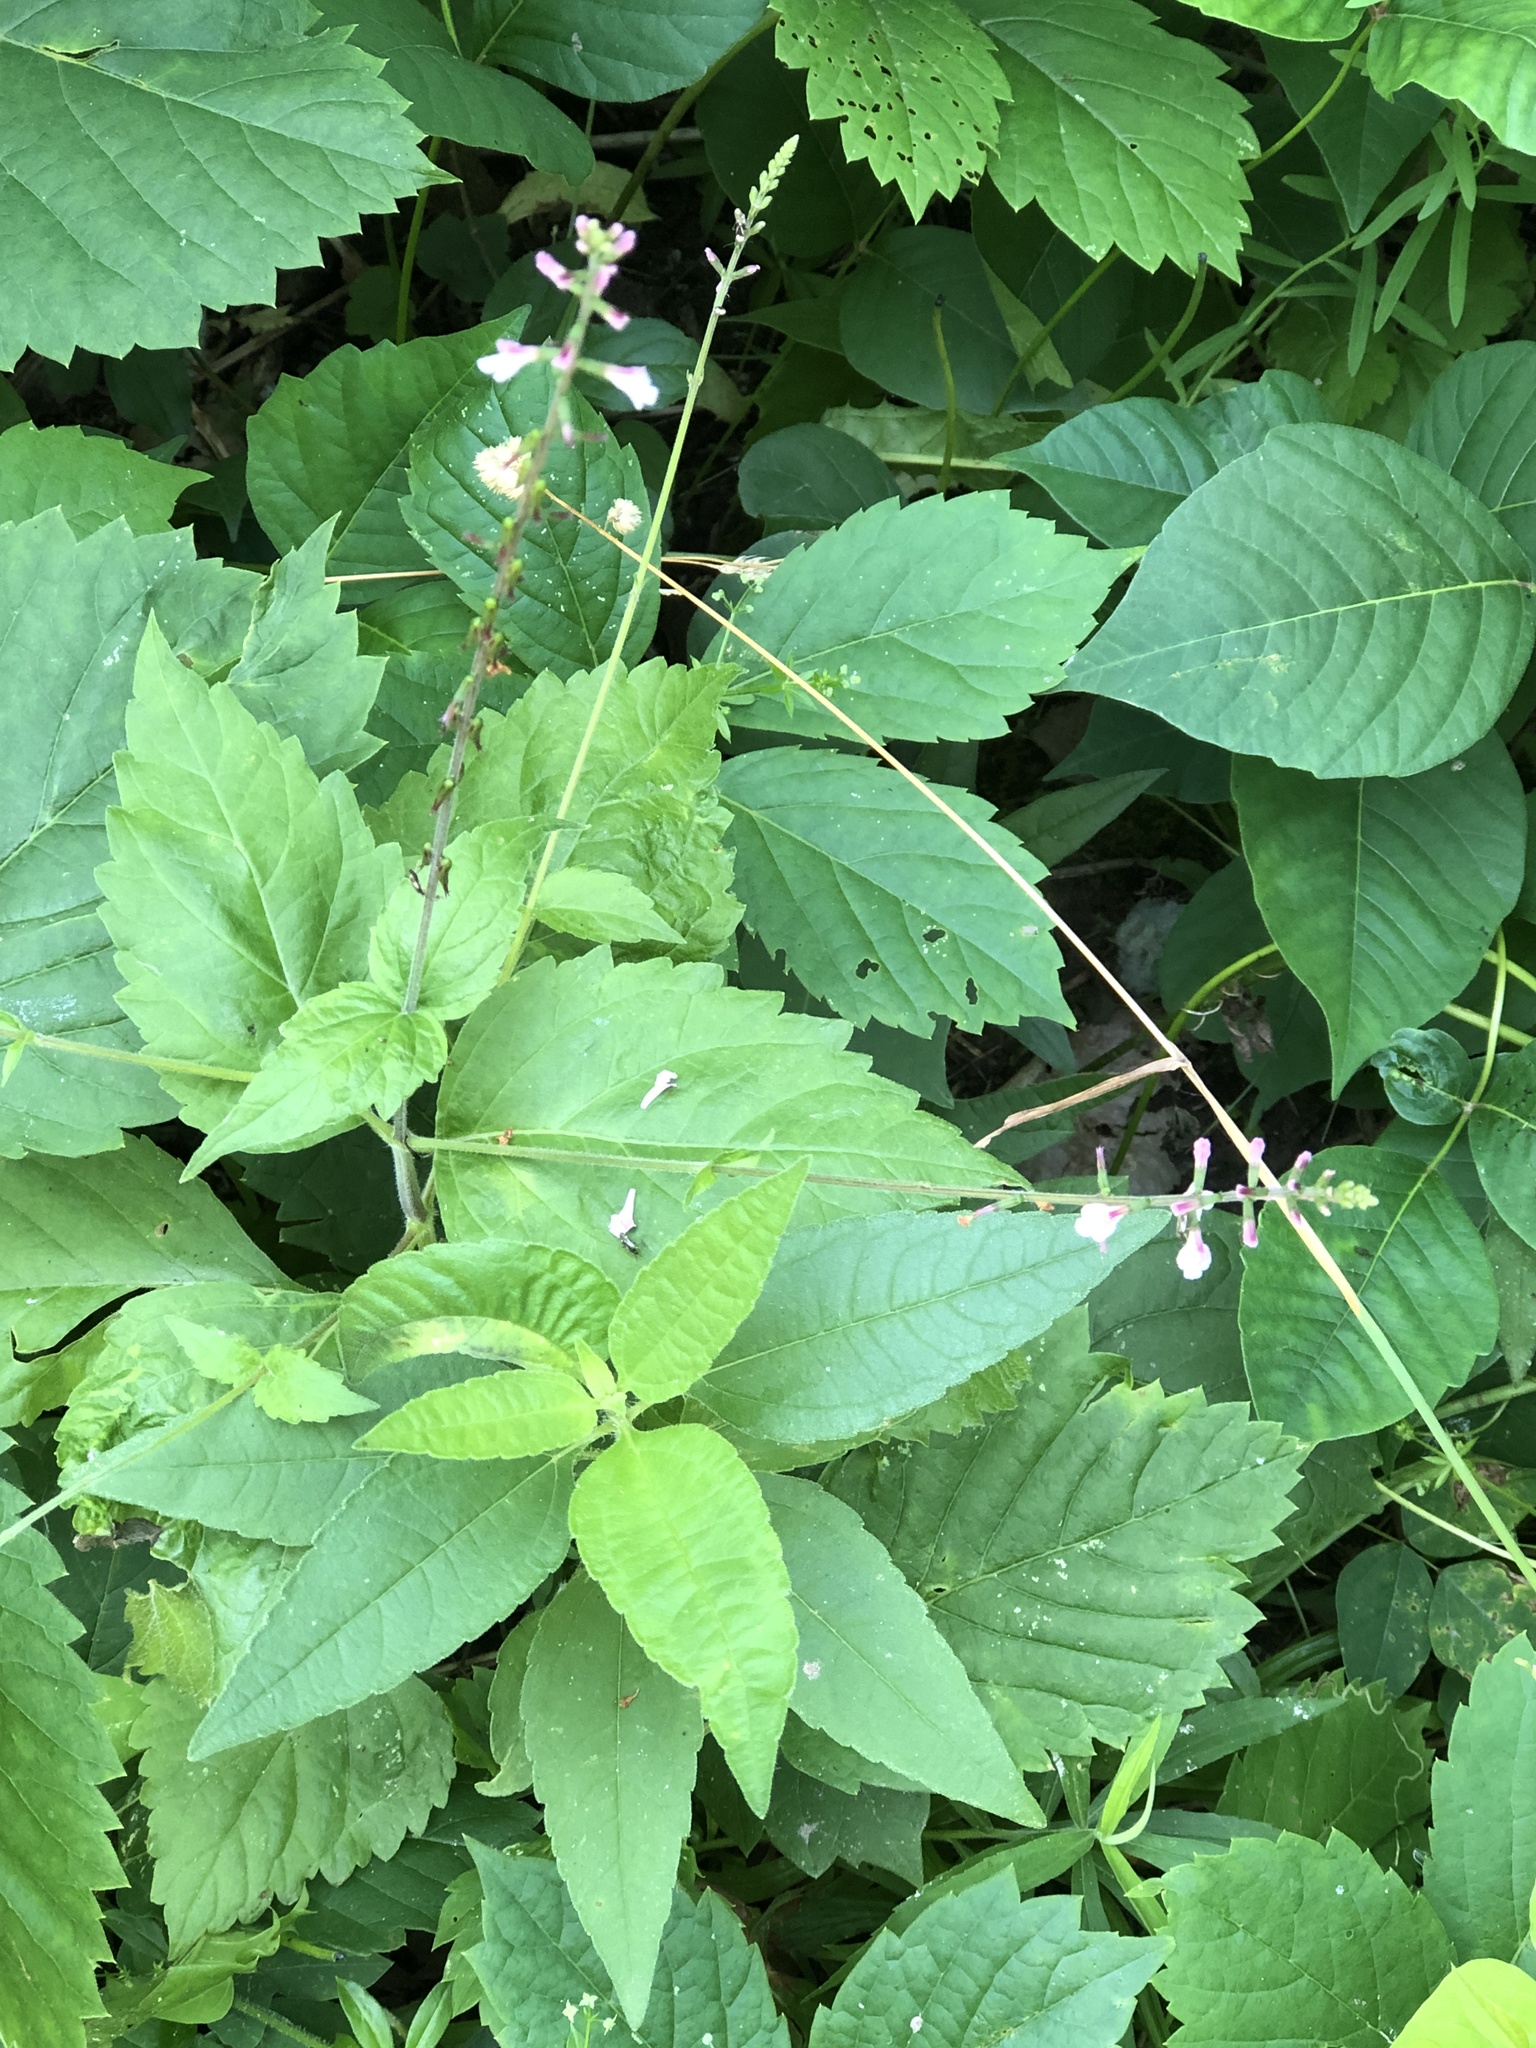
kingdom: Plantae
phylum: Tracheophyta
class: Magnoliopsida
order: Lamiales
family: Phrymaceae
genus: Phryma
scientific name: Phryma leptostachya
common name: American lopseed
